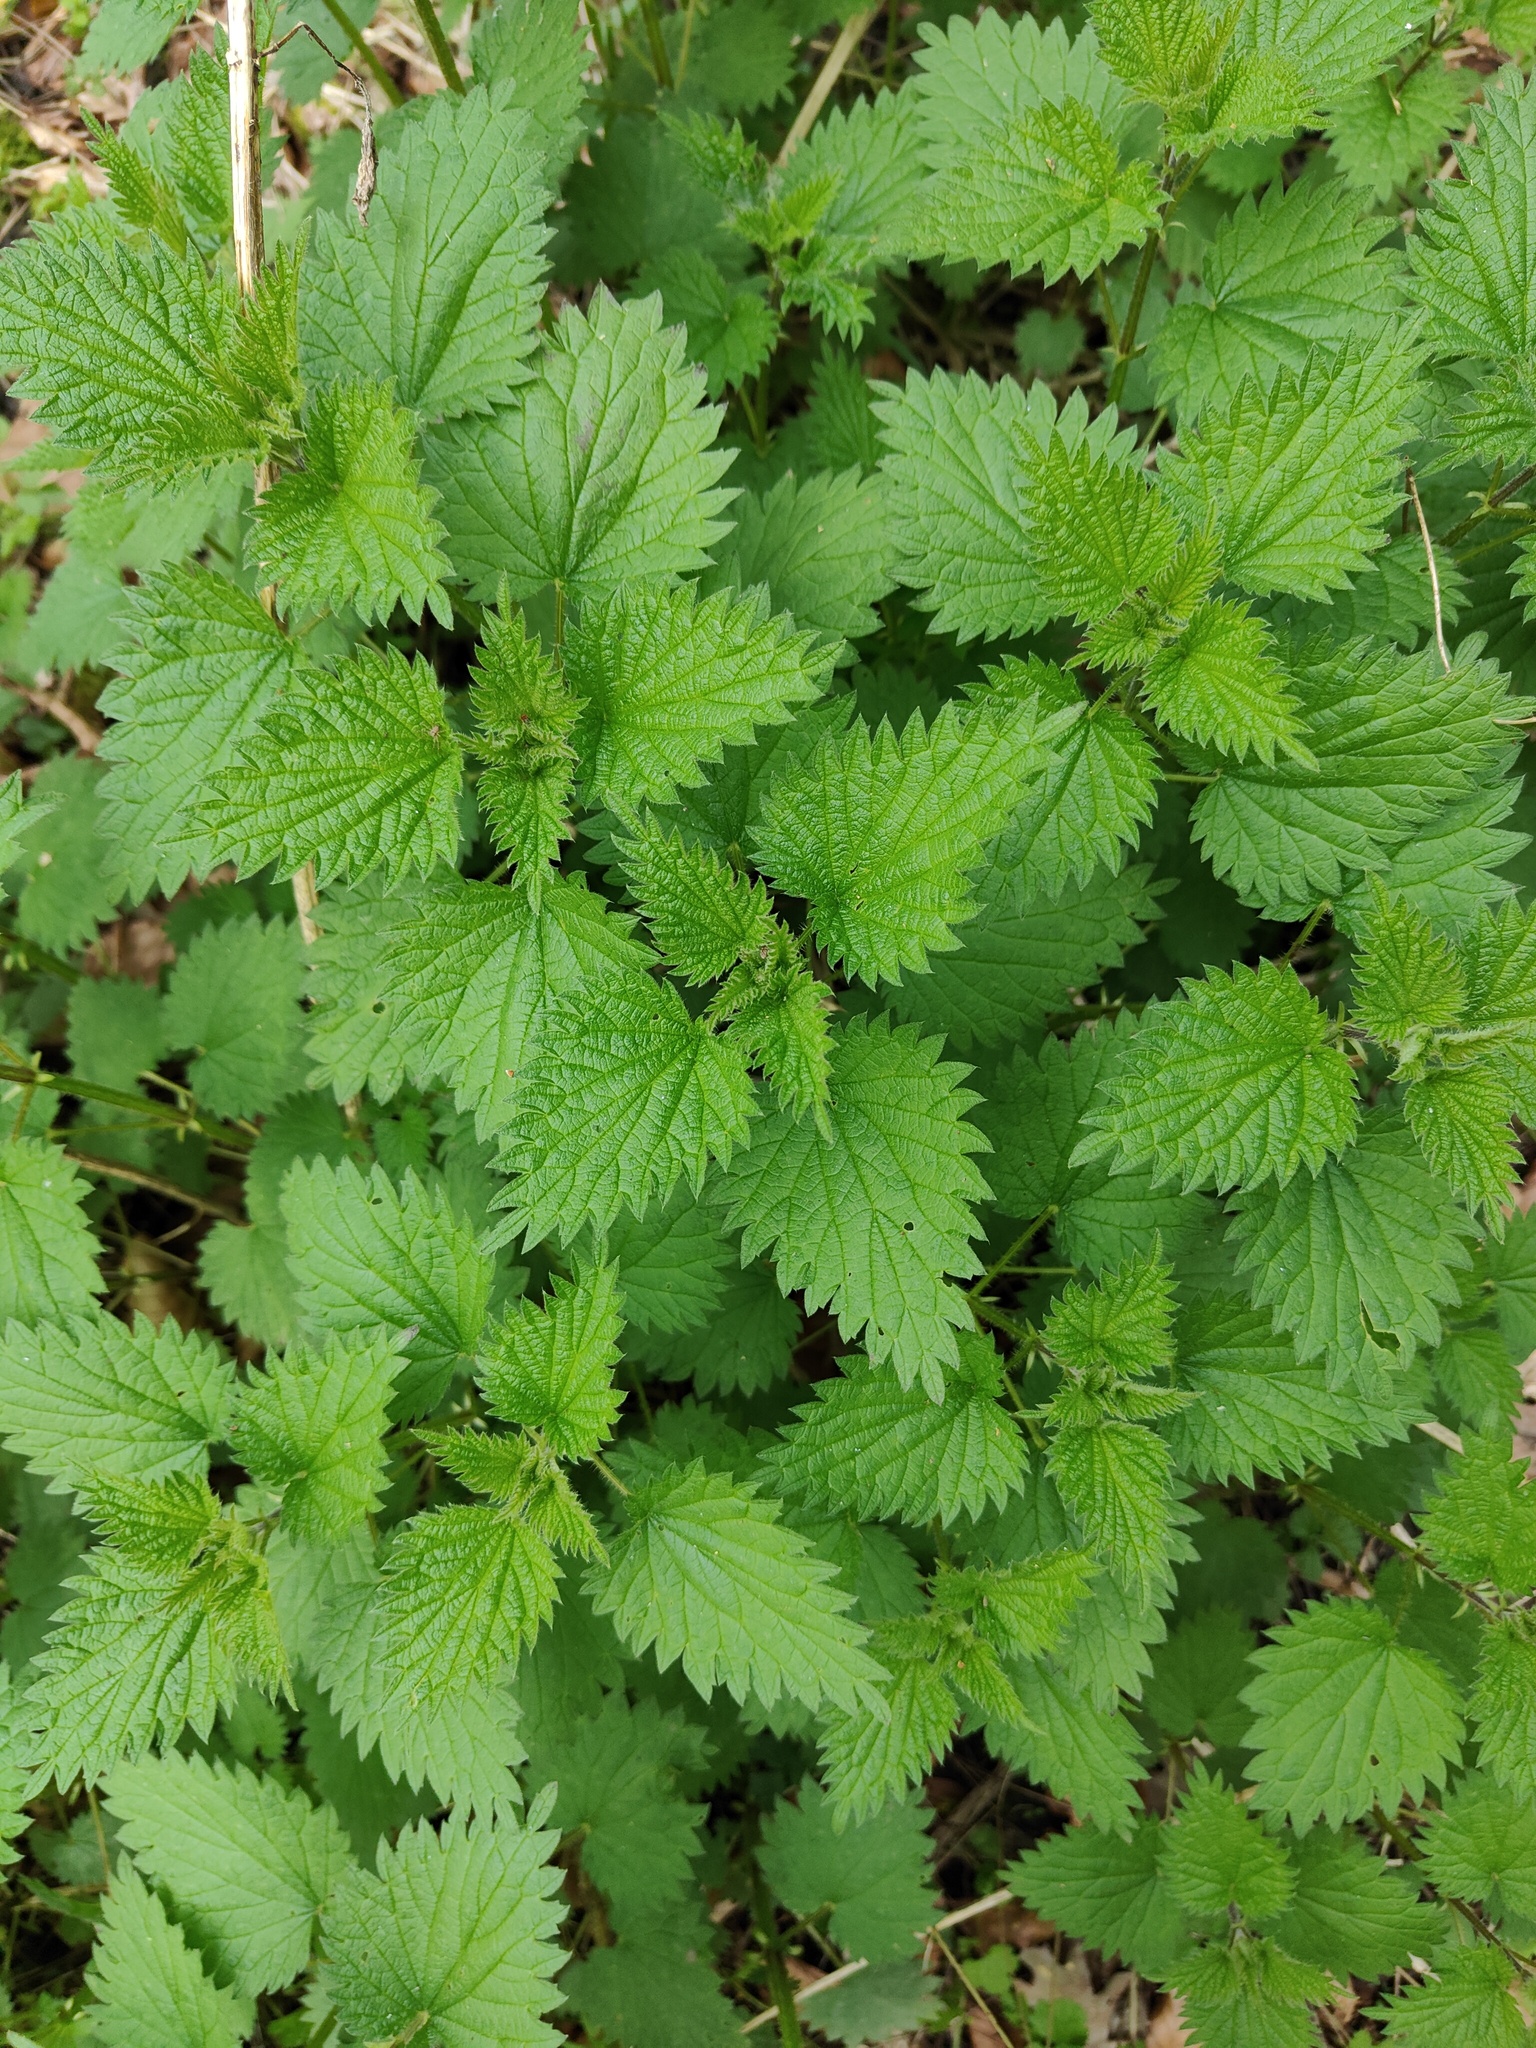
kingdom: Plantae
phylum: Tracheophyta
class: Magnoliopsida
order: Rosales
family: Urticaceae
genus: Urtica
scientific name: Urtica dioica
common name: Common nettle
